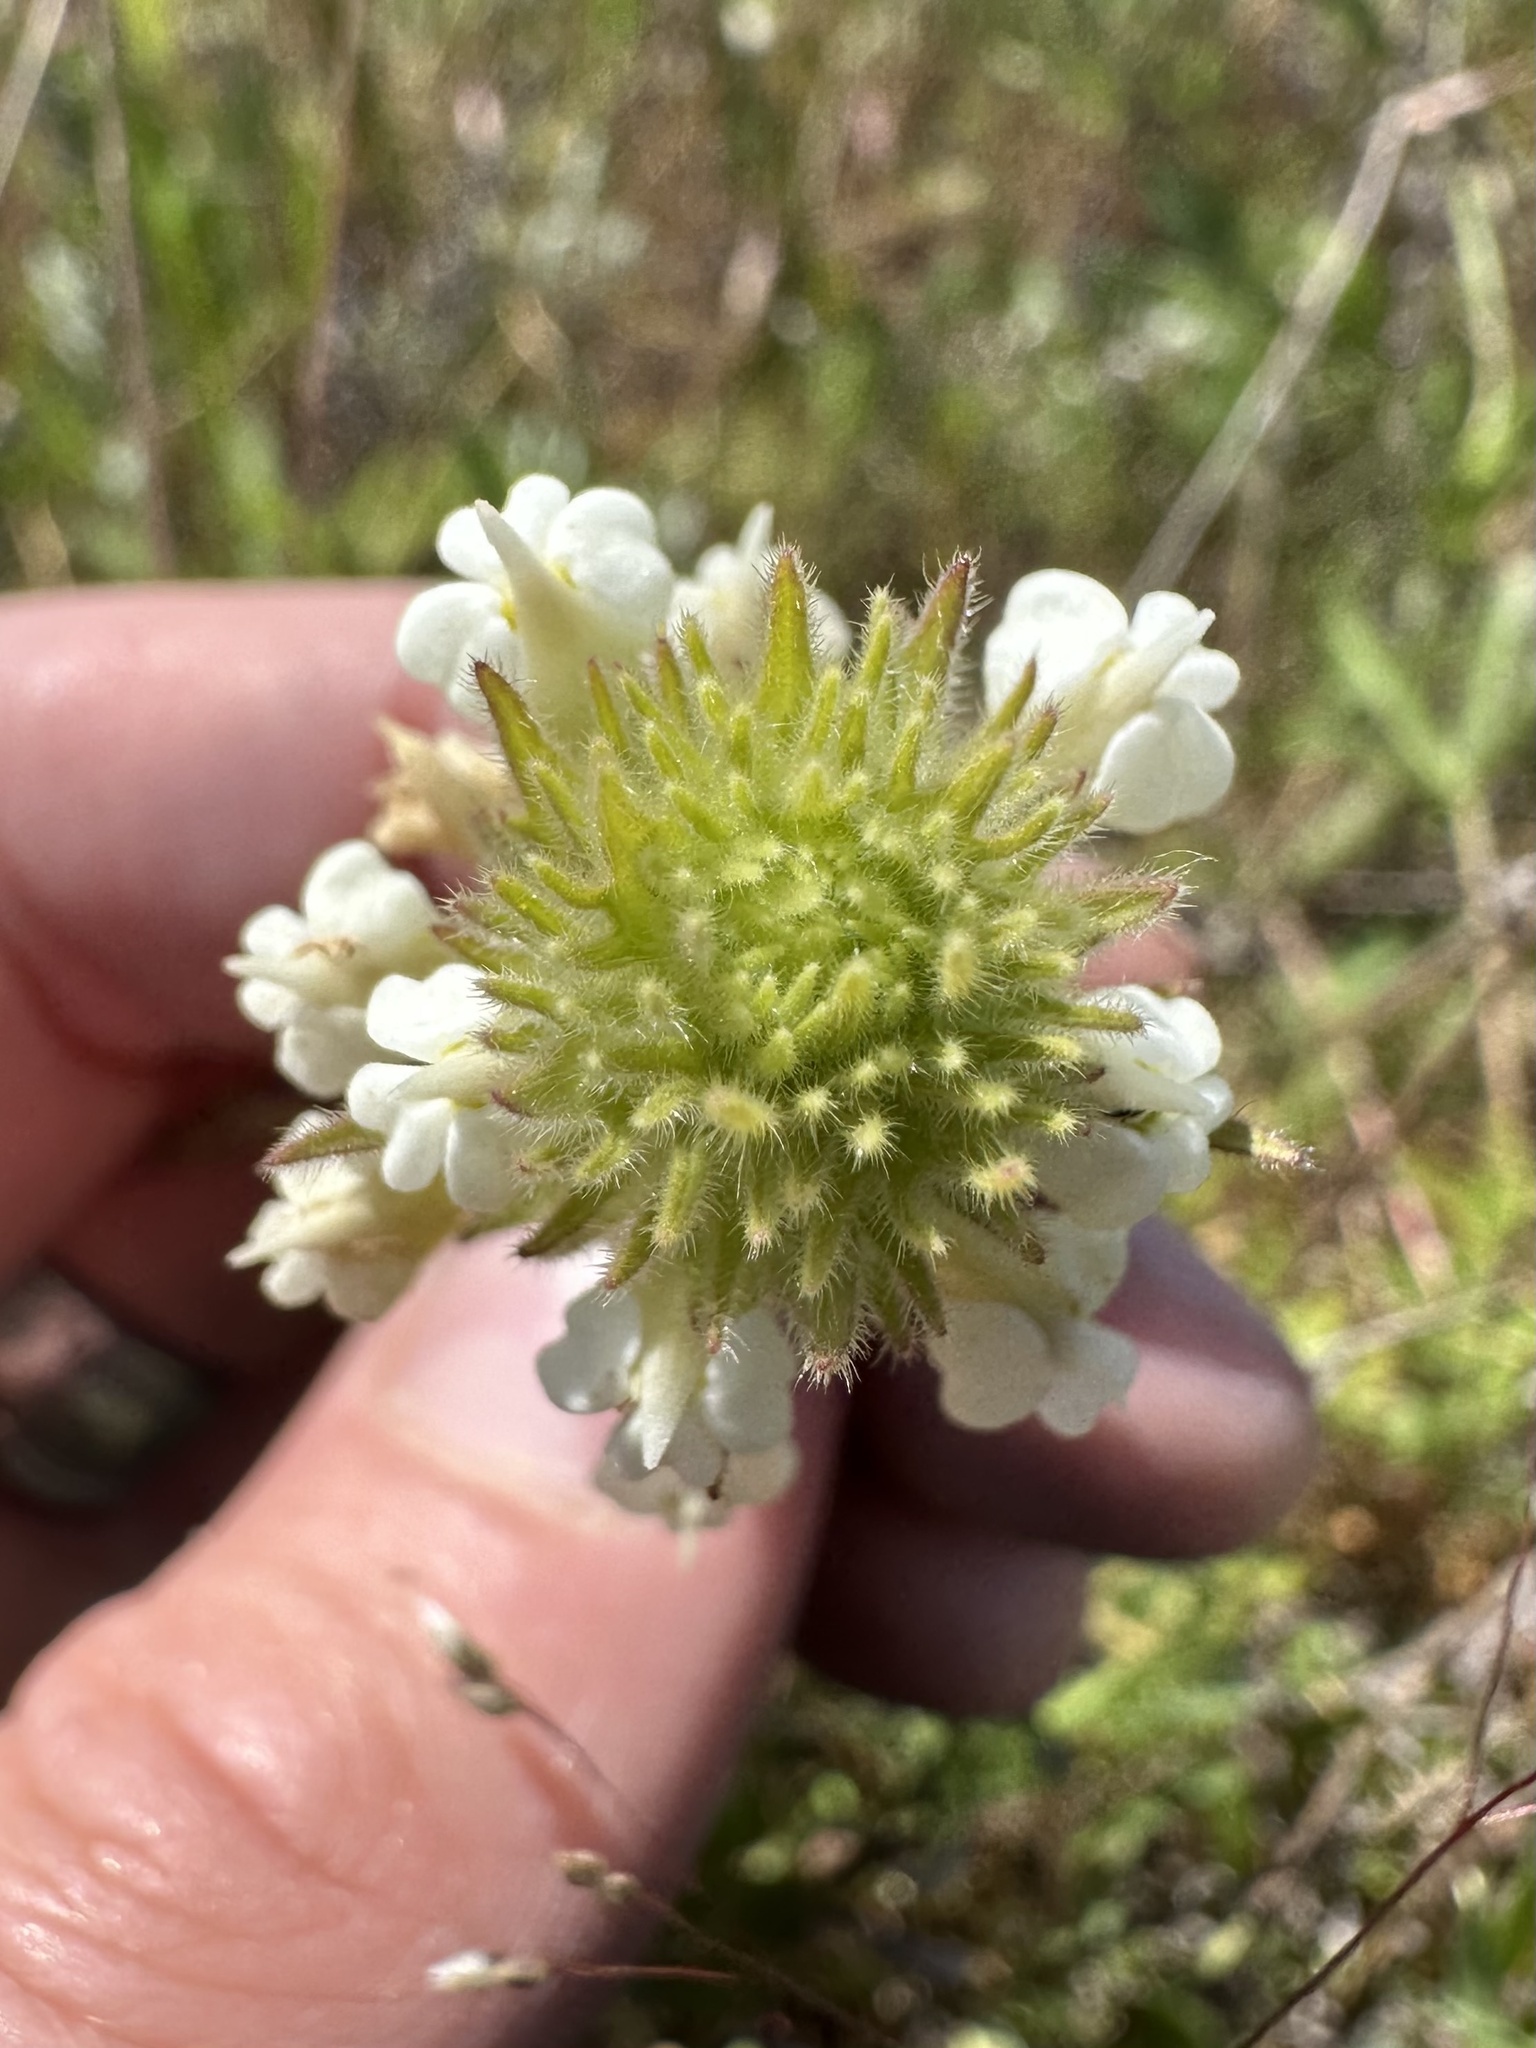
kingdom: Plantae
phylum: Tracheophyta
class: Magnoliopsida
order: Lamiales
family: Orobanchaceae
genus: Castilleja
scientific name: Castilleja tenuis
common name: Hairy indian paintbrush
